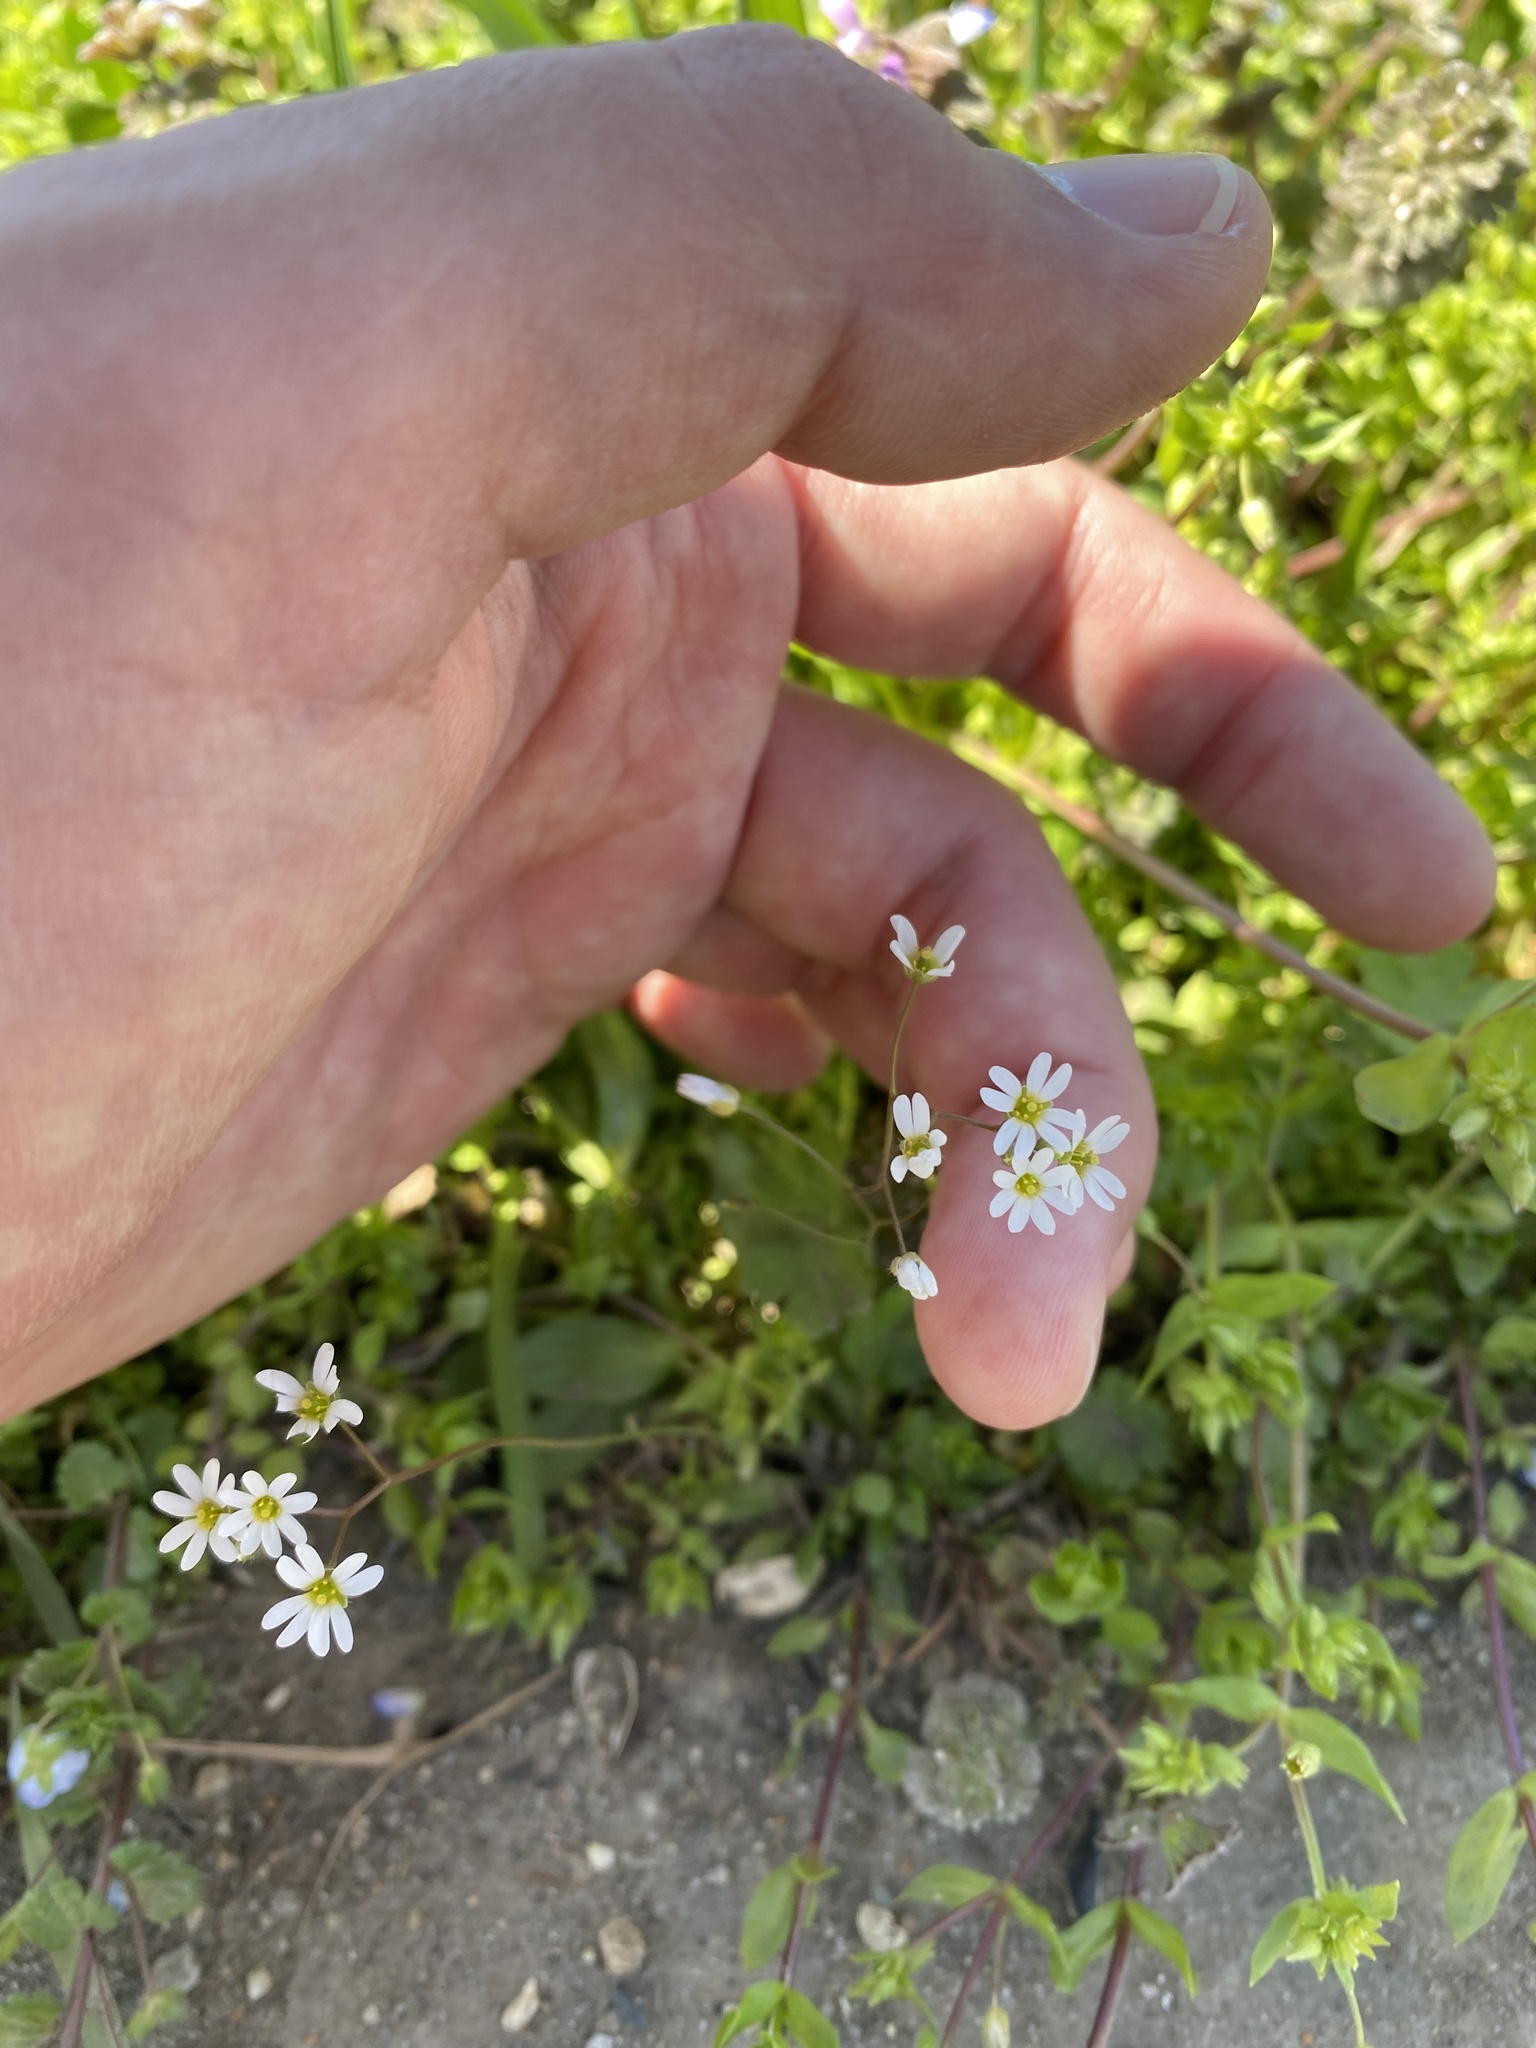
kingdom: Plantae
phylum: Tracheophyta
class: Magnoliopsida
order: Brassicales
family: Brassicaceae
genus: Draba
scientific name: Draba verna
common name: Spring draba
